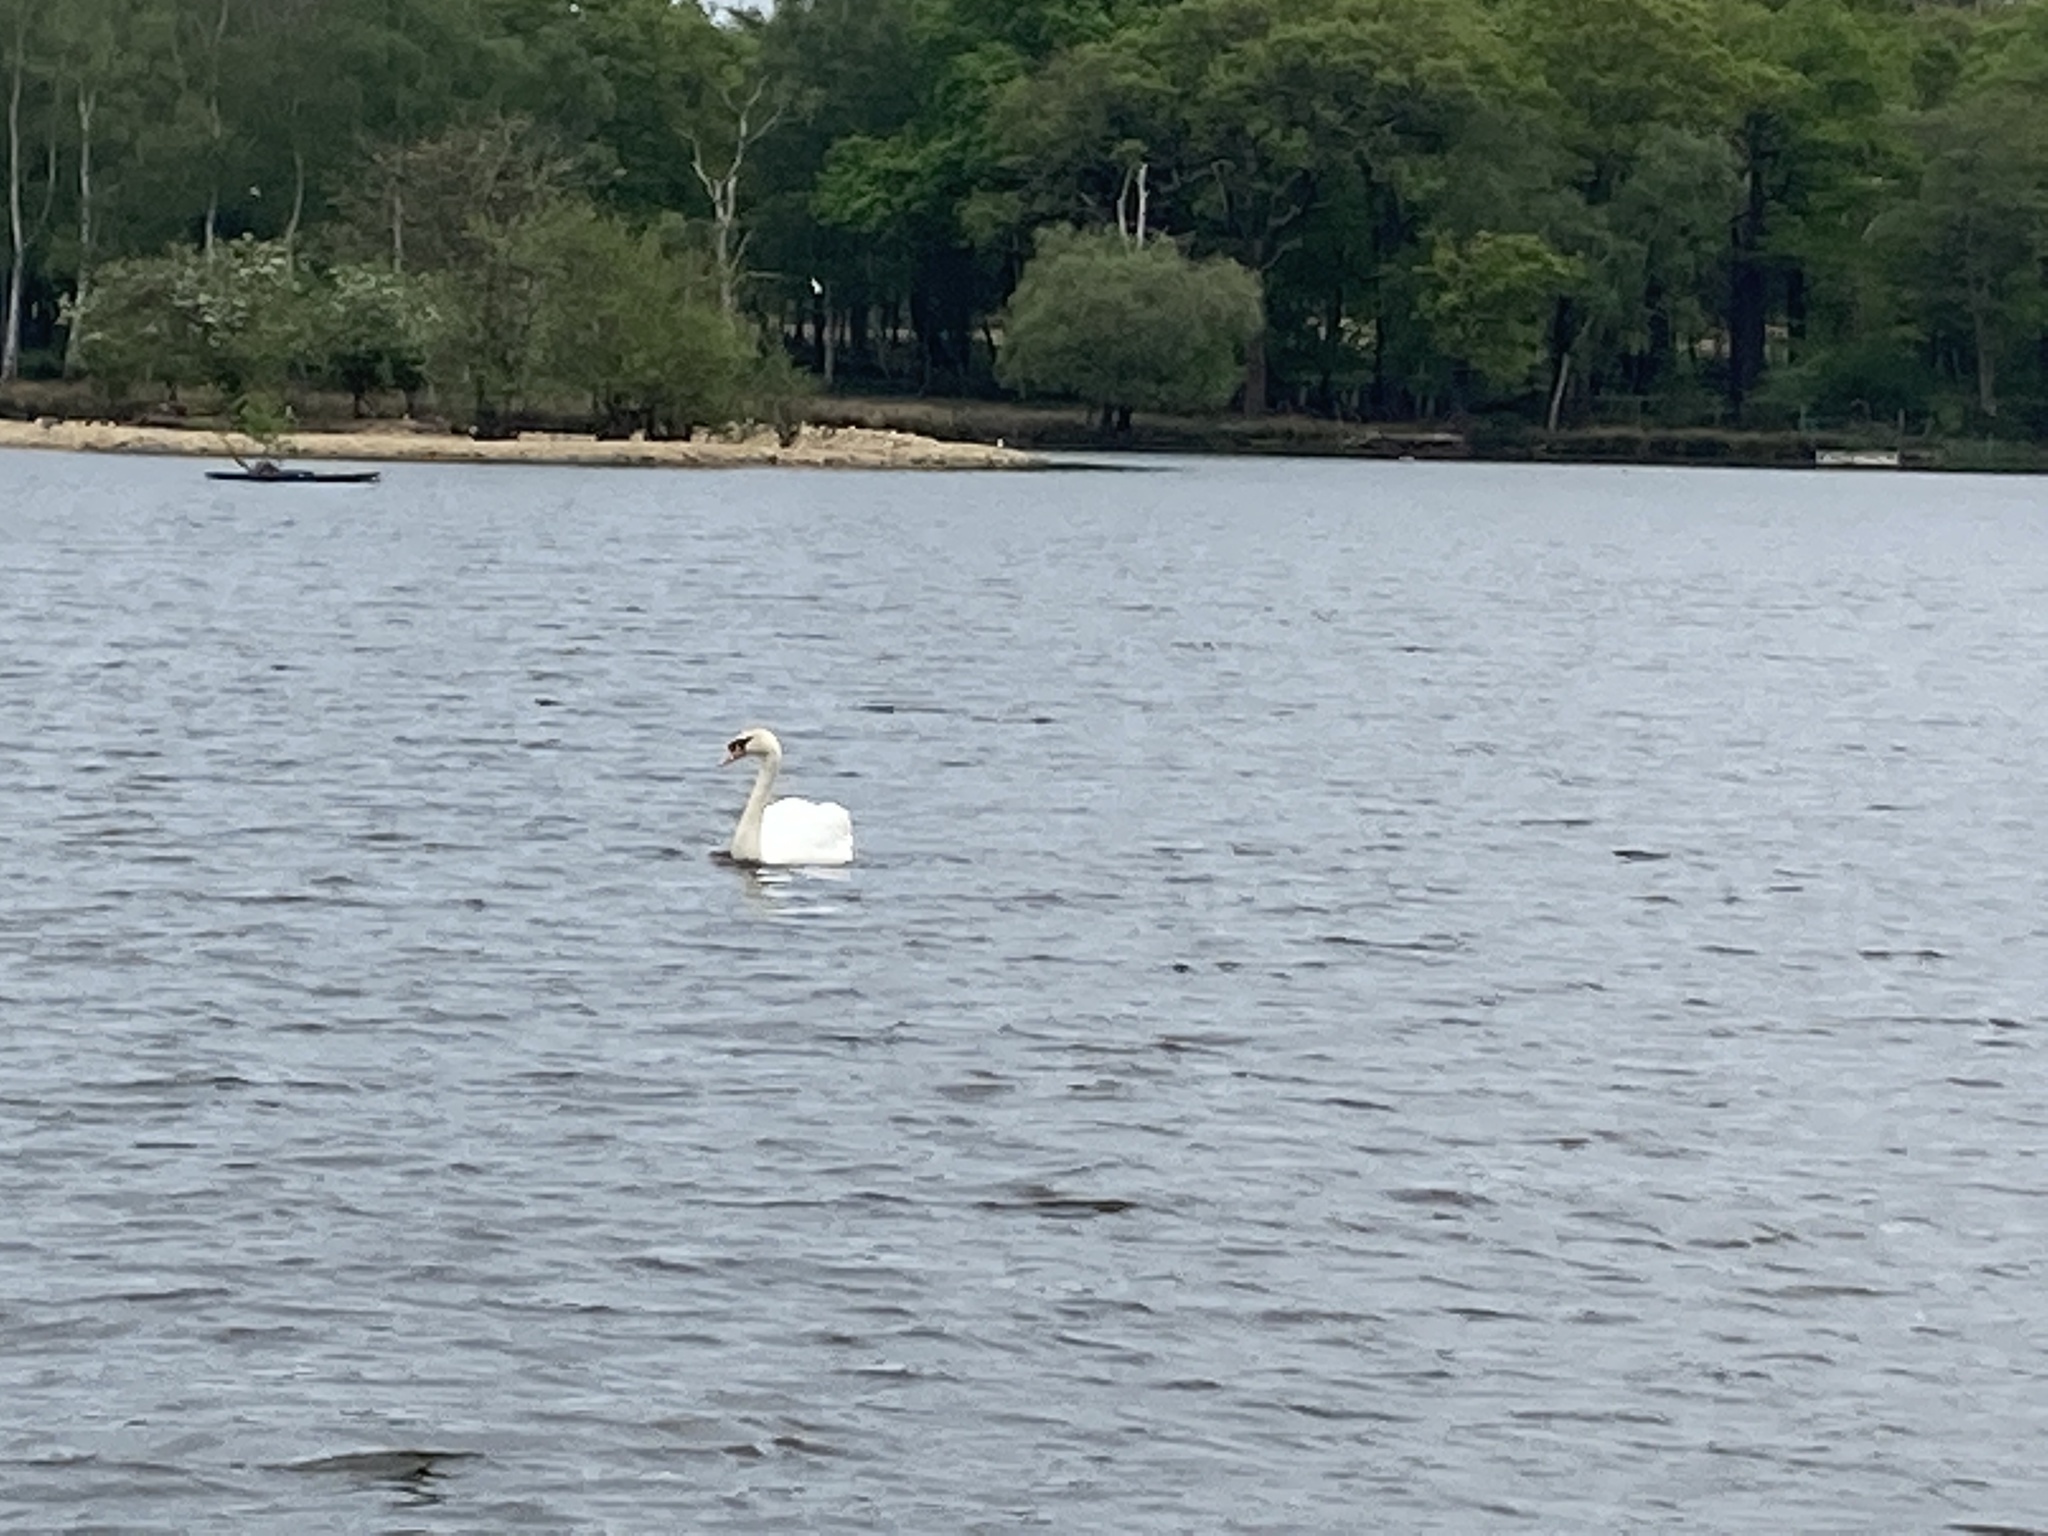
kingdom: Animalia
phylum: Chordata
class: Aves
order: Anseriformes
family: Anatidae
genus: Cygnus
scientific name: Cygnus olor
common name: Mute swan
